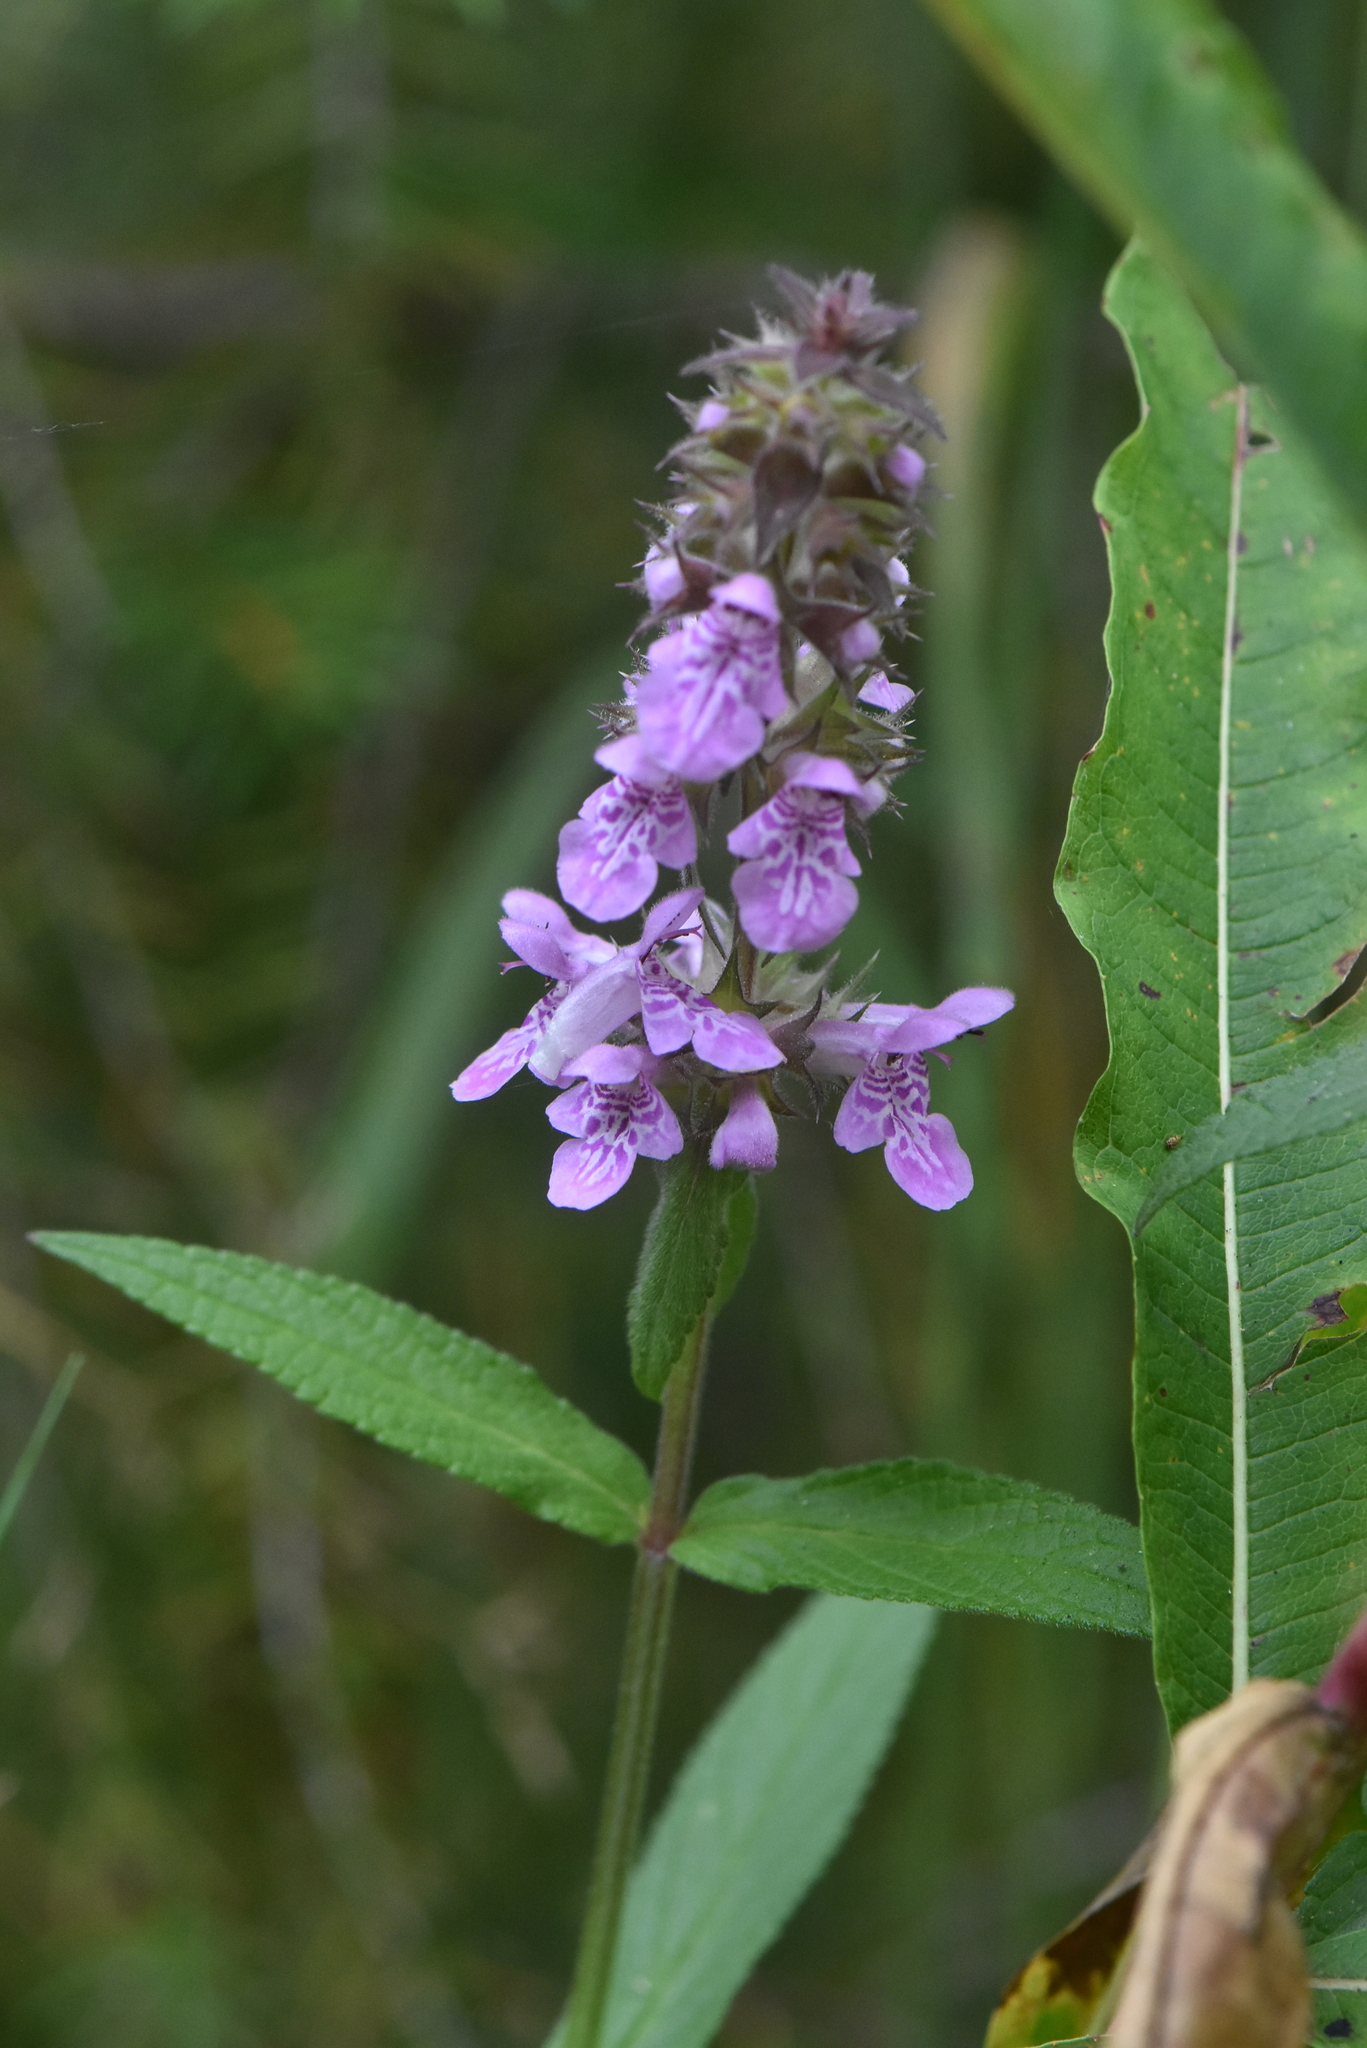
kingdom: Plantae
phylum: Tracheophyta
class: Magnoliopsida
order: Lamiales
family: Lamiaceae
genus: Stachys
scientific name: Stachys palustris
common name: Marsh woundwort
